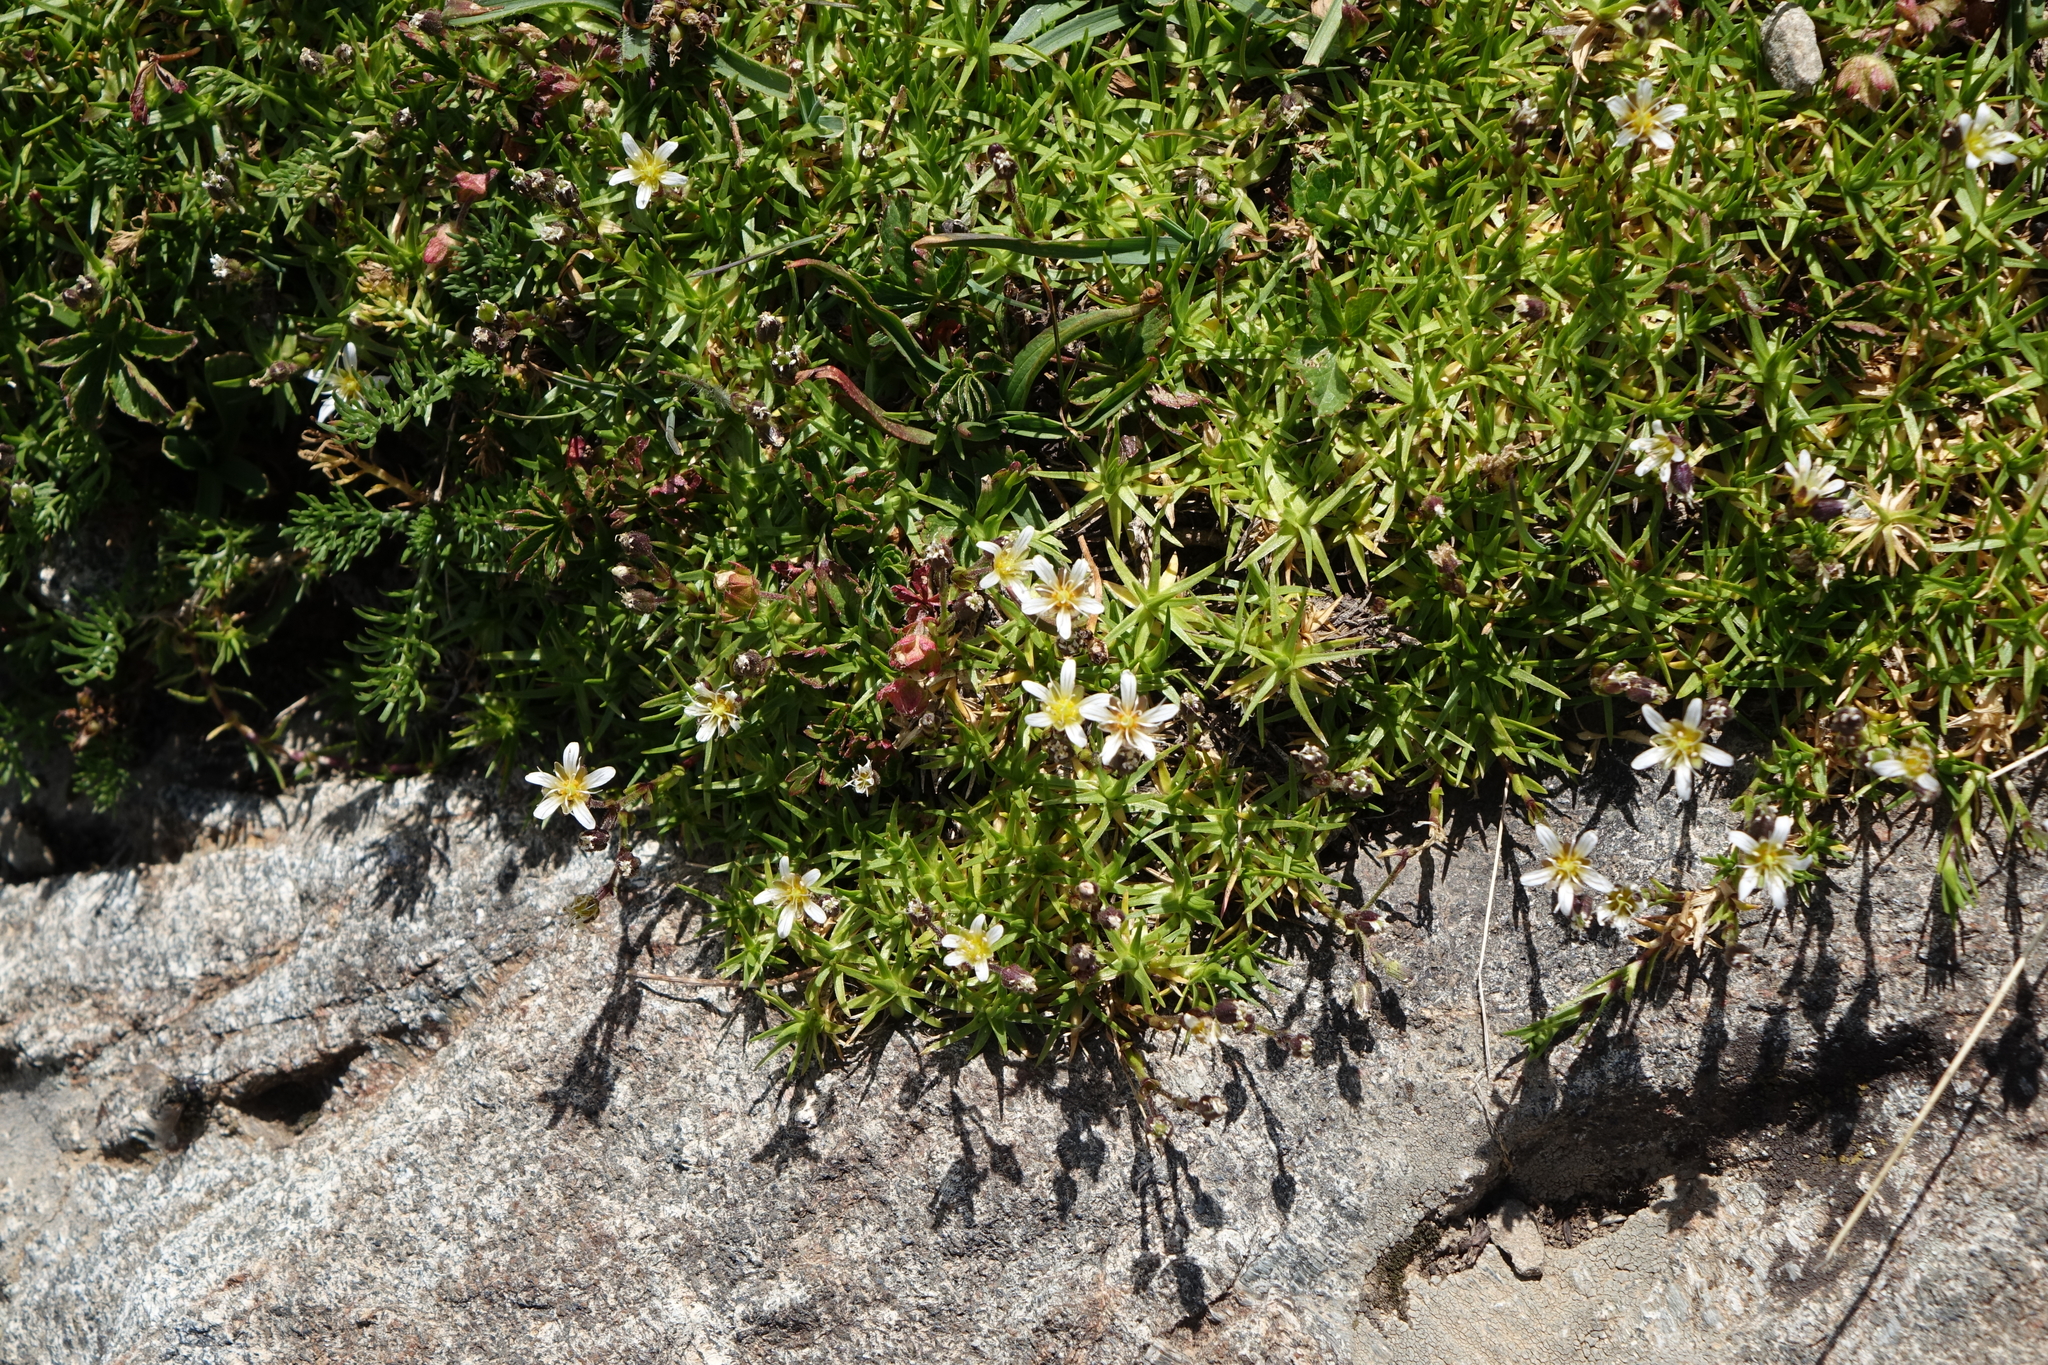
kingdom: Plantae
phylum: Tracheophyta
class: Magnoliopsida
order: Caryophyllales
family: Caryophyllaceae
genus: Pseudocherleria
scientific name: Pseudocherleria aizoides
